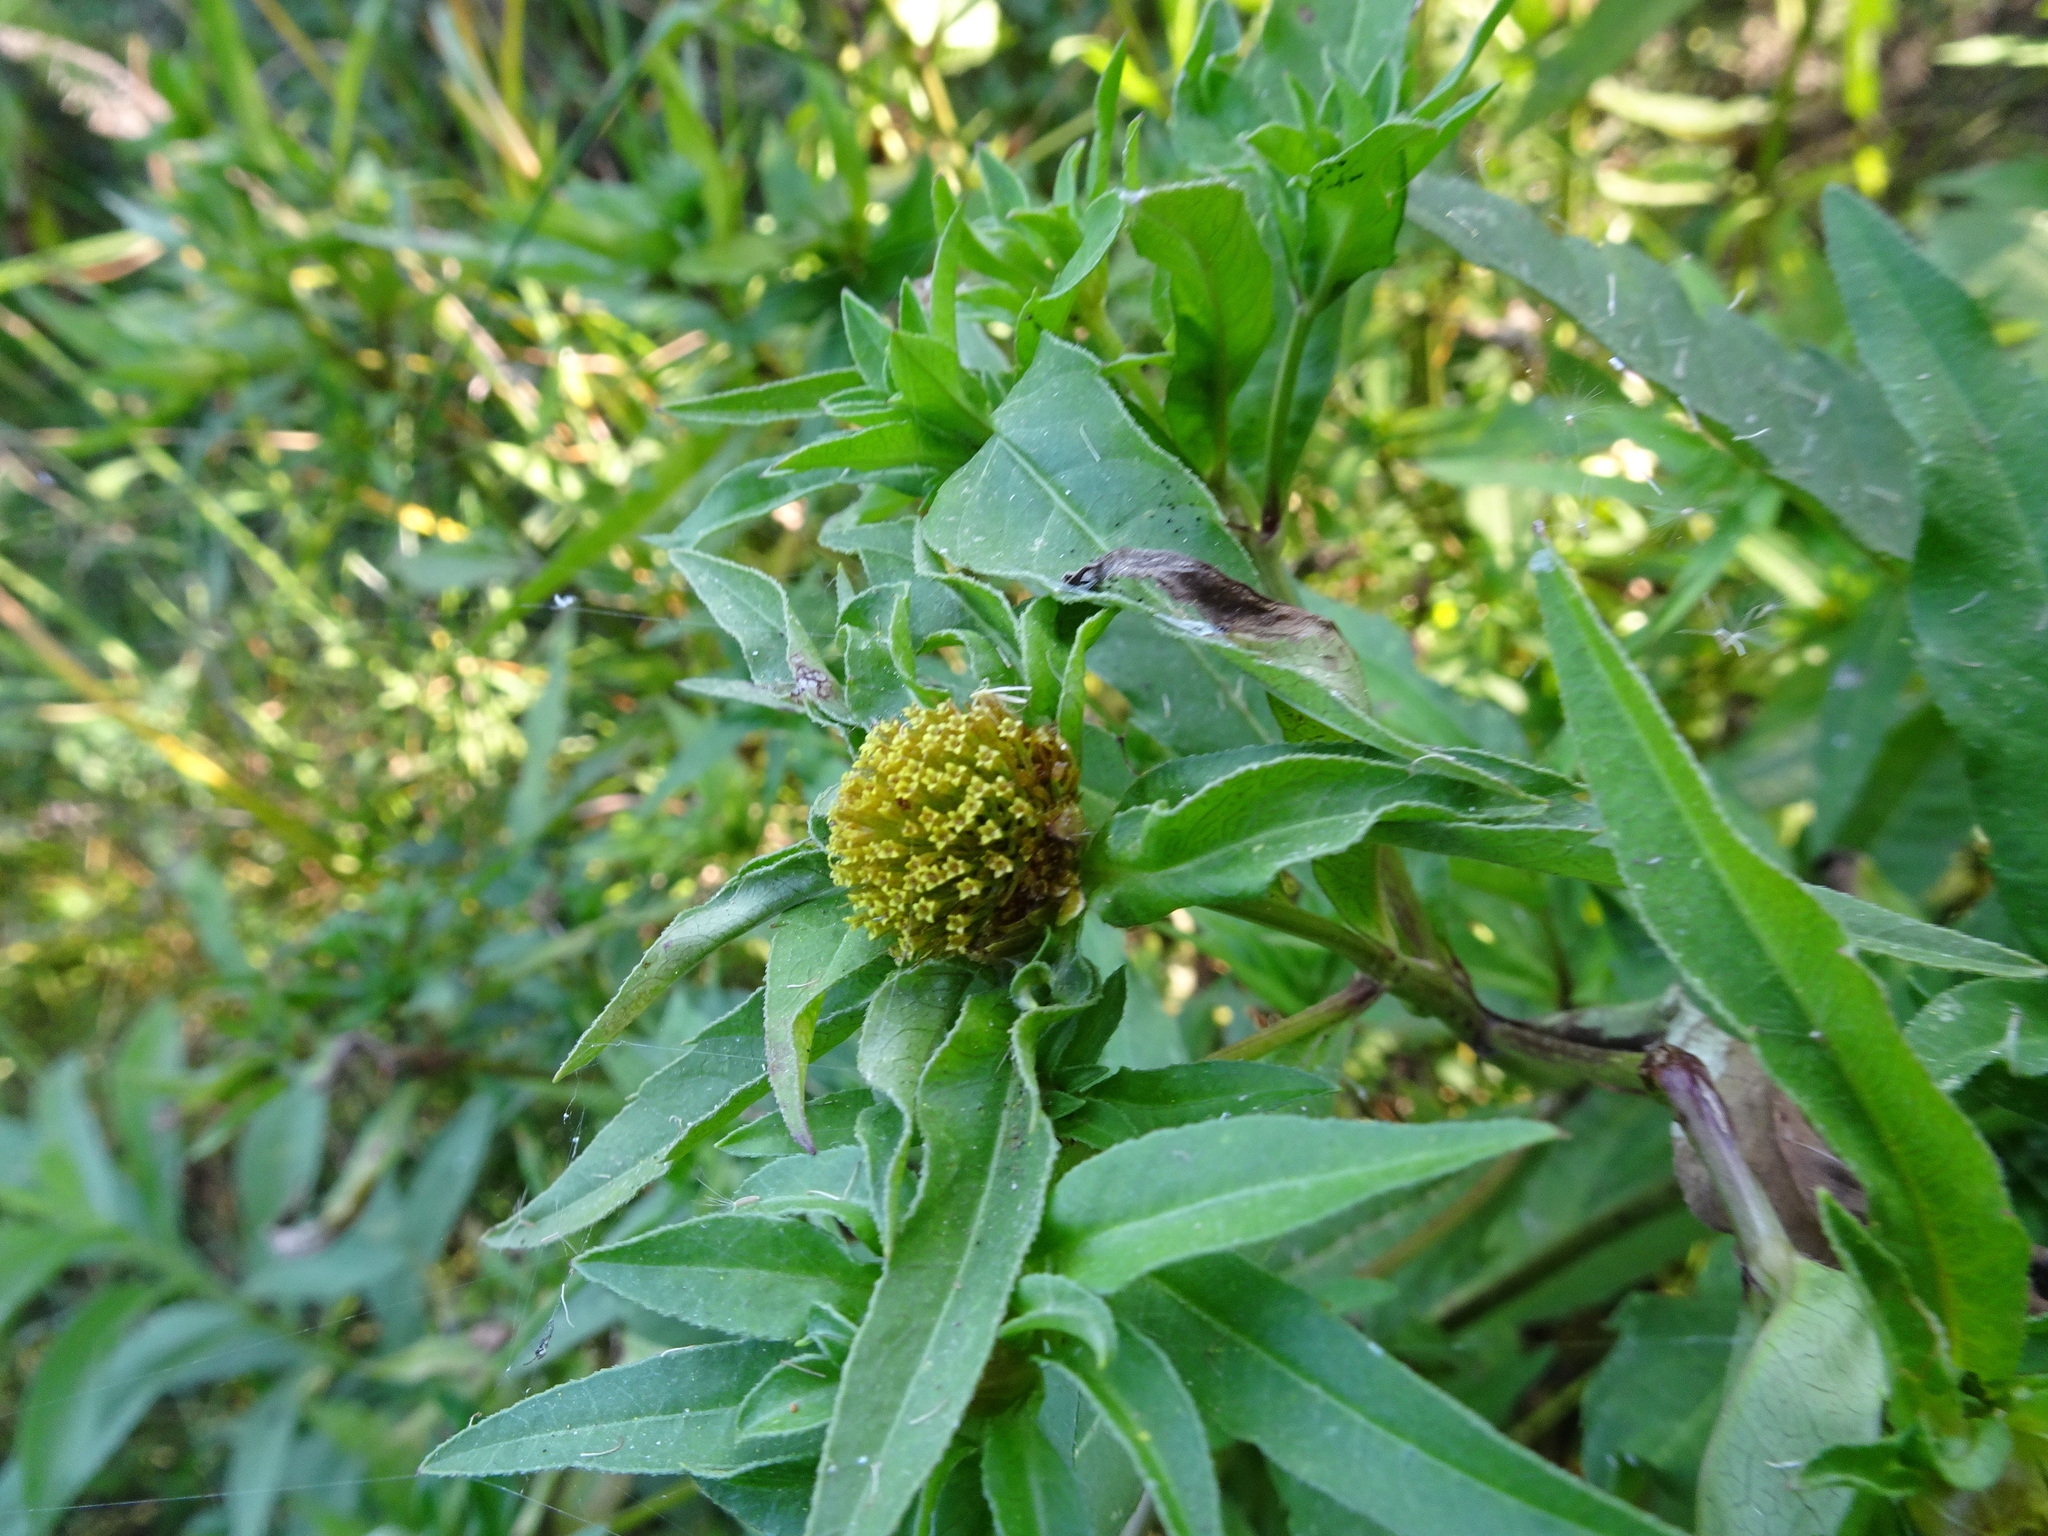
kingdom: Plantae
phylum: Tracheophyta
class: Magnoliopsida
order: Asterales
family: Asteraceae
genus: Bidens
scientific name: Bidens tripartita
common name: Trifid bur-marigold
